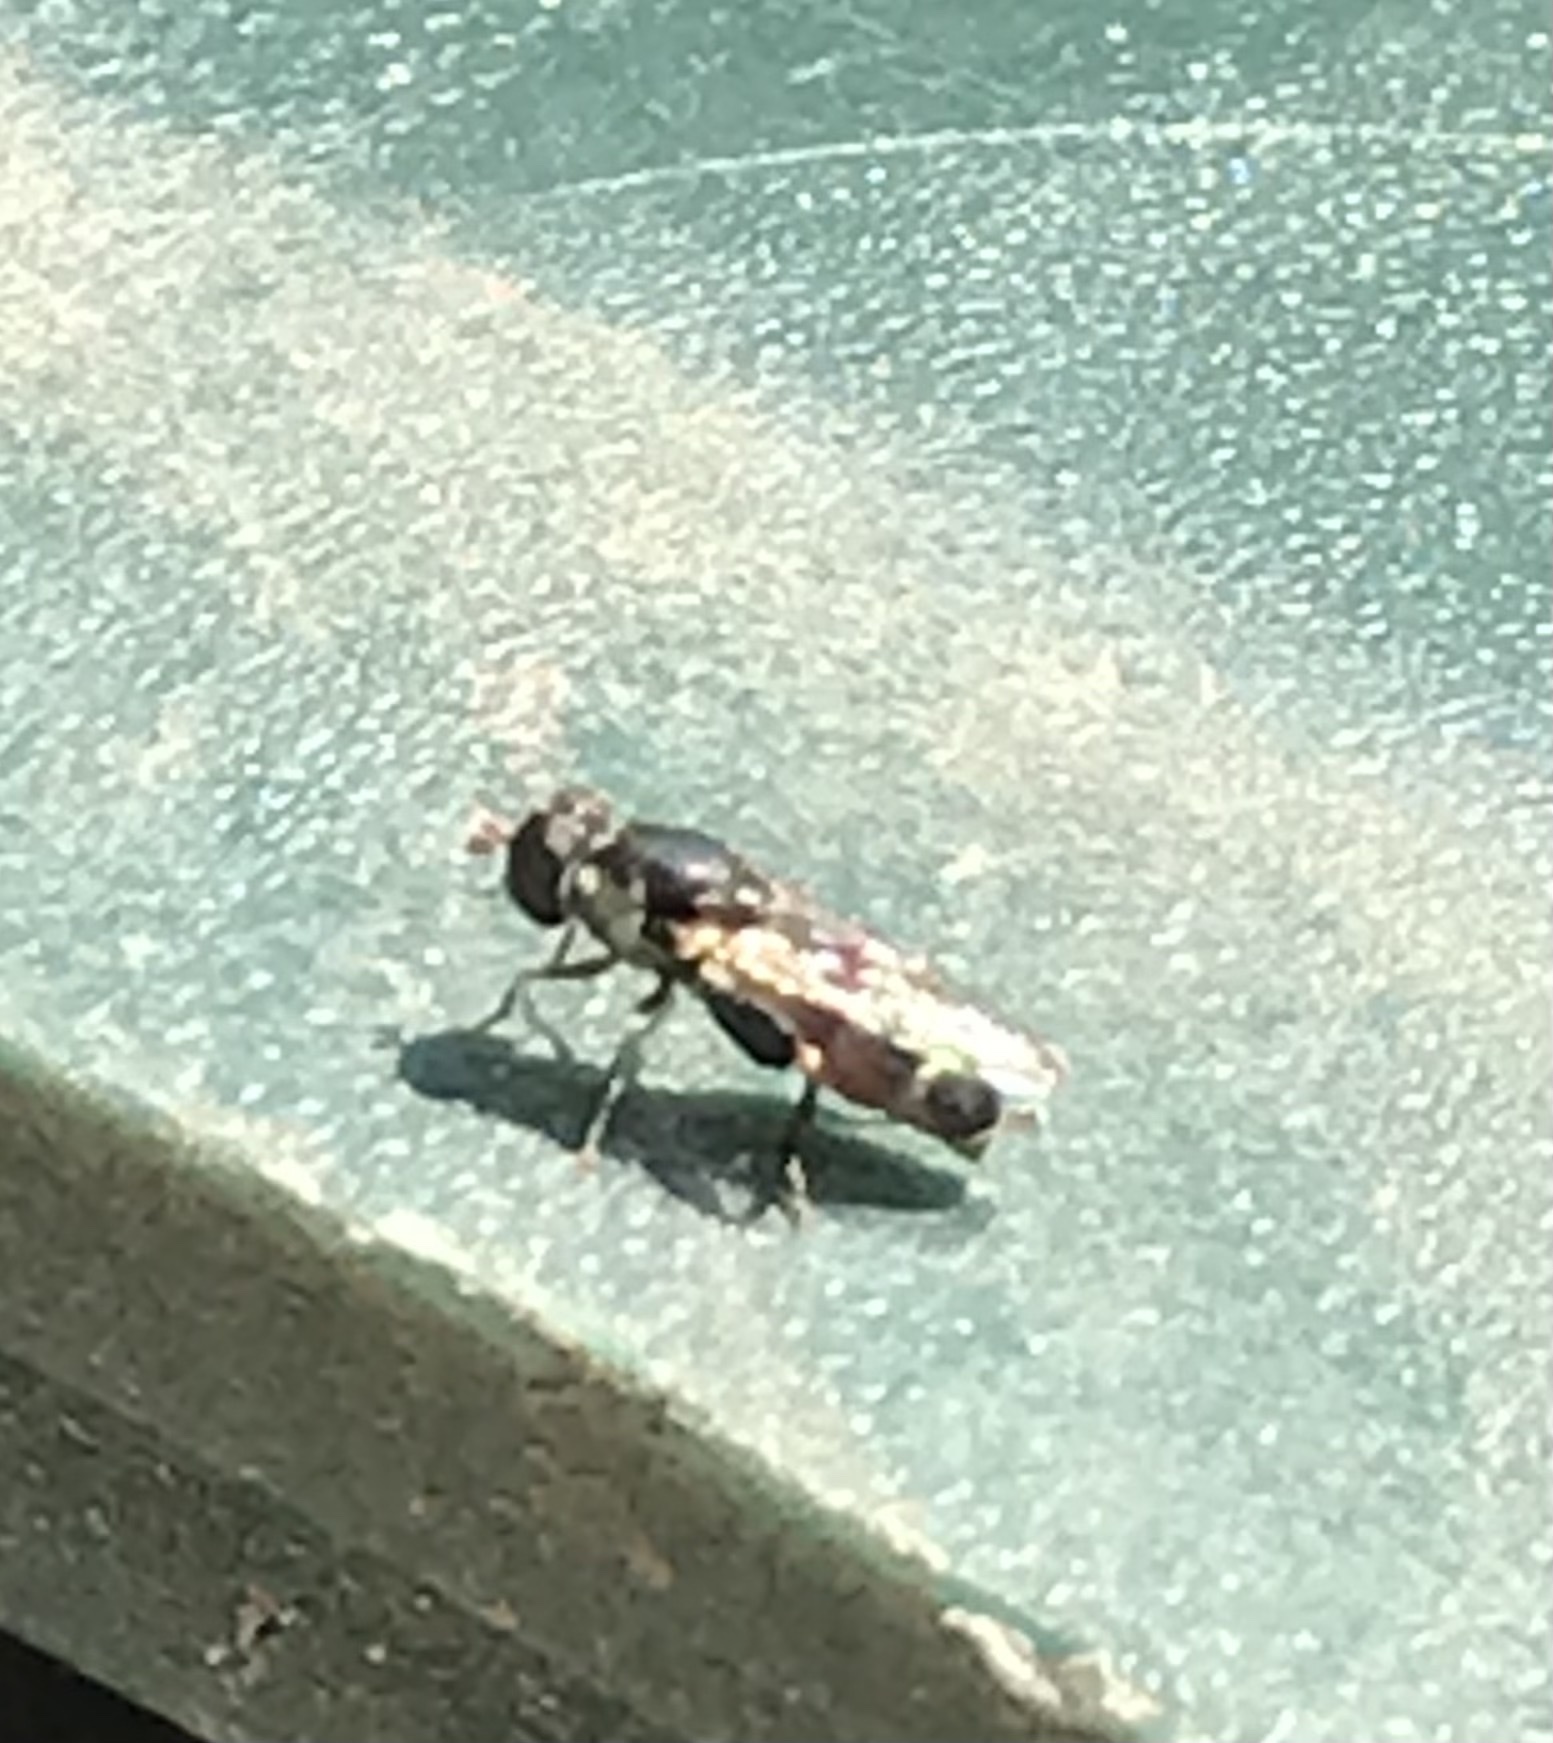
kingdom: Animalia
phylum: Arthropoda
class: Insecta
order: Diptera
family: Syrphidae
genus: Syritta
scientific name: Syritta pipiens
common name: Hover fly
